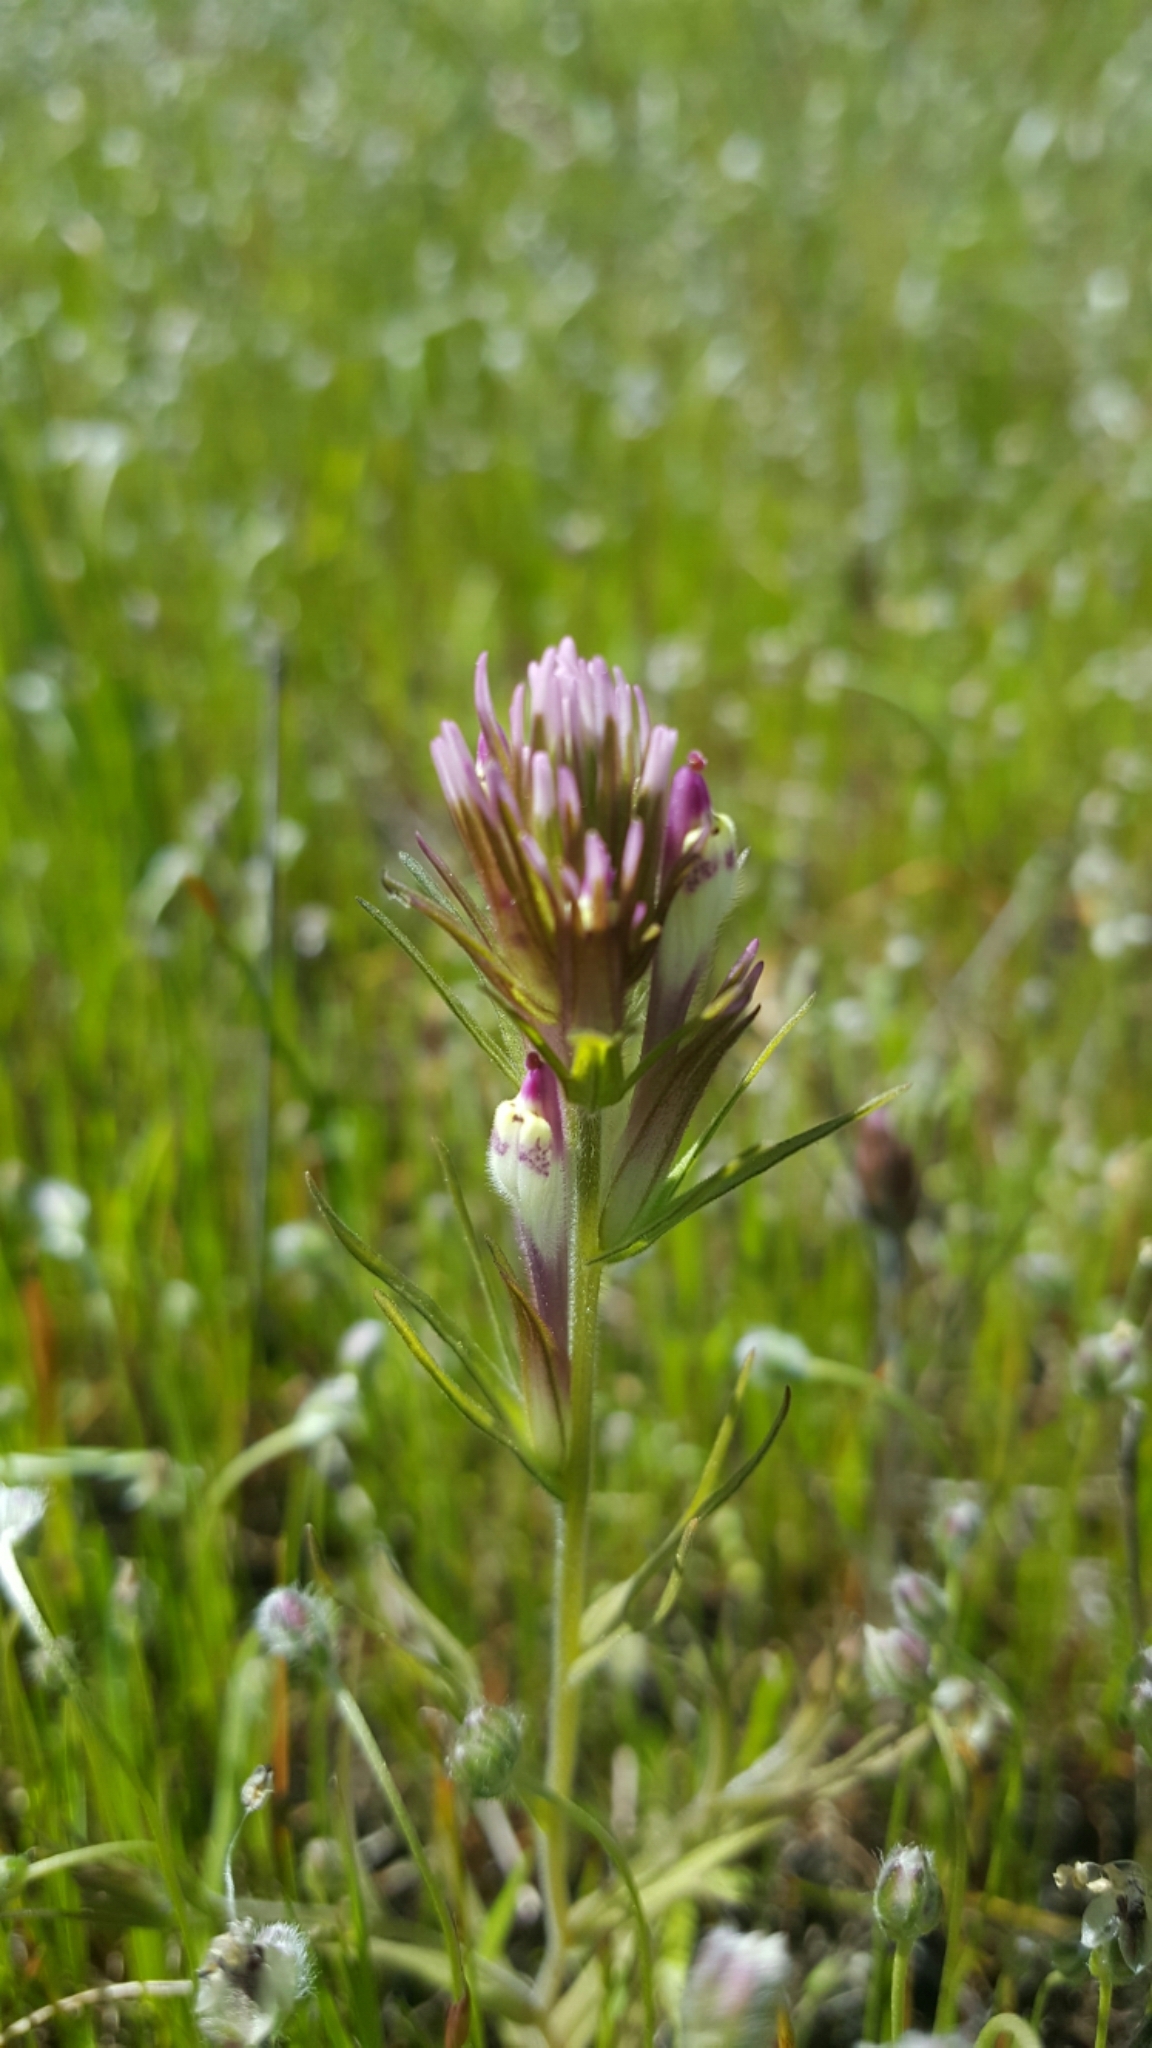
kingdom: Plantae
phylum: Tracheophyta
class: Magnoliopsida
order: Lamiales
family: Orobanchaceae
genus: Castilleja
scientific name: Castilleja densiflora
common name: Dense-flower indian paintbrush
